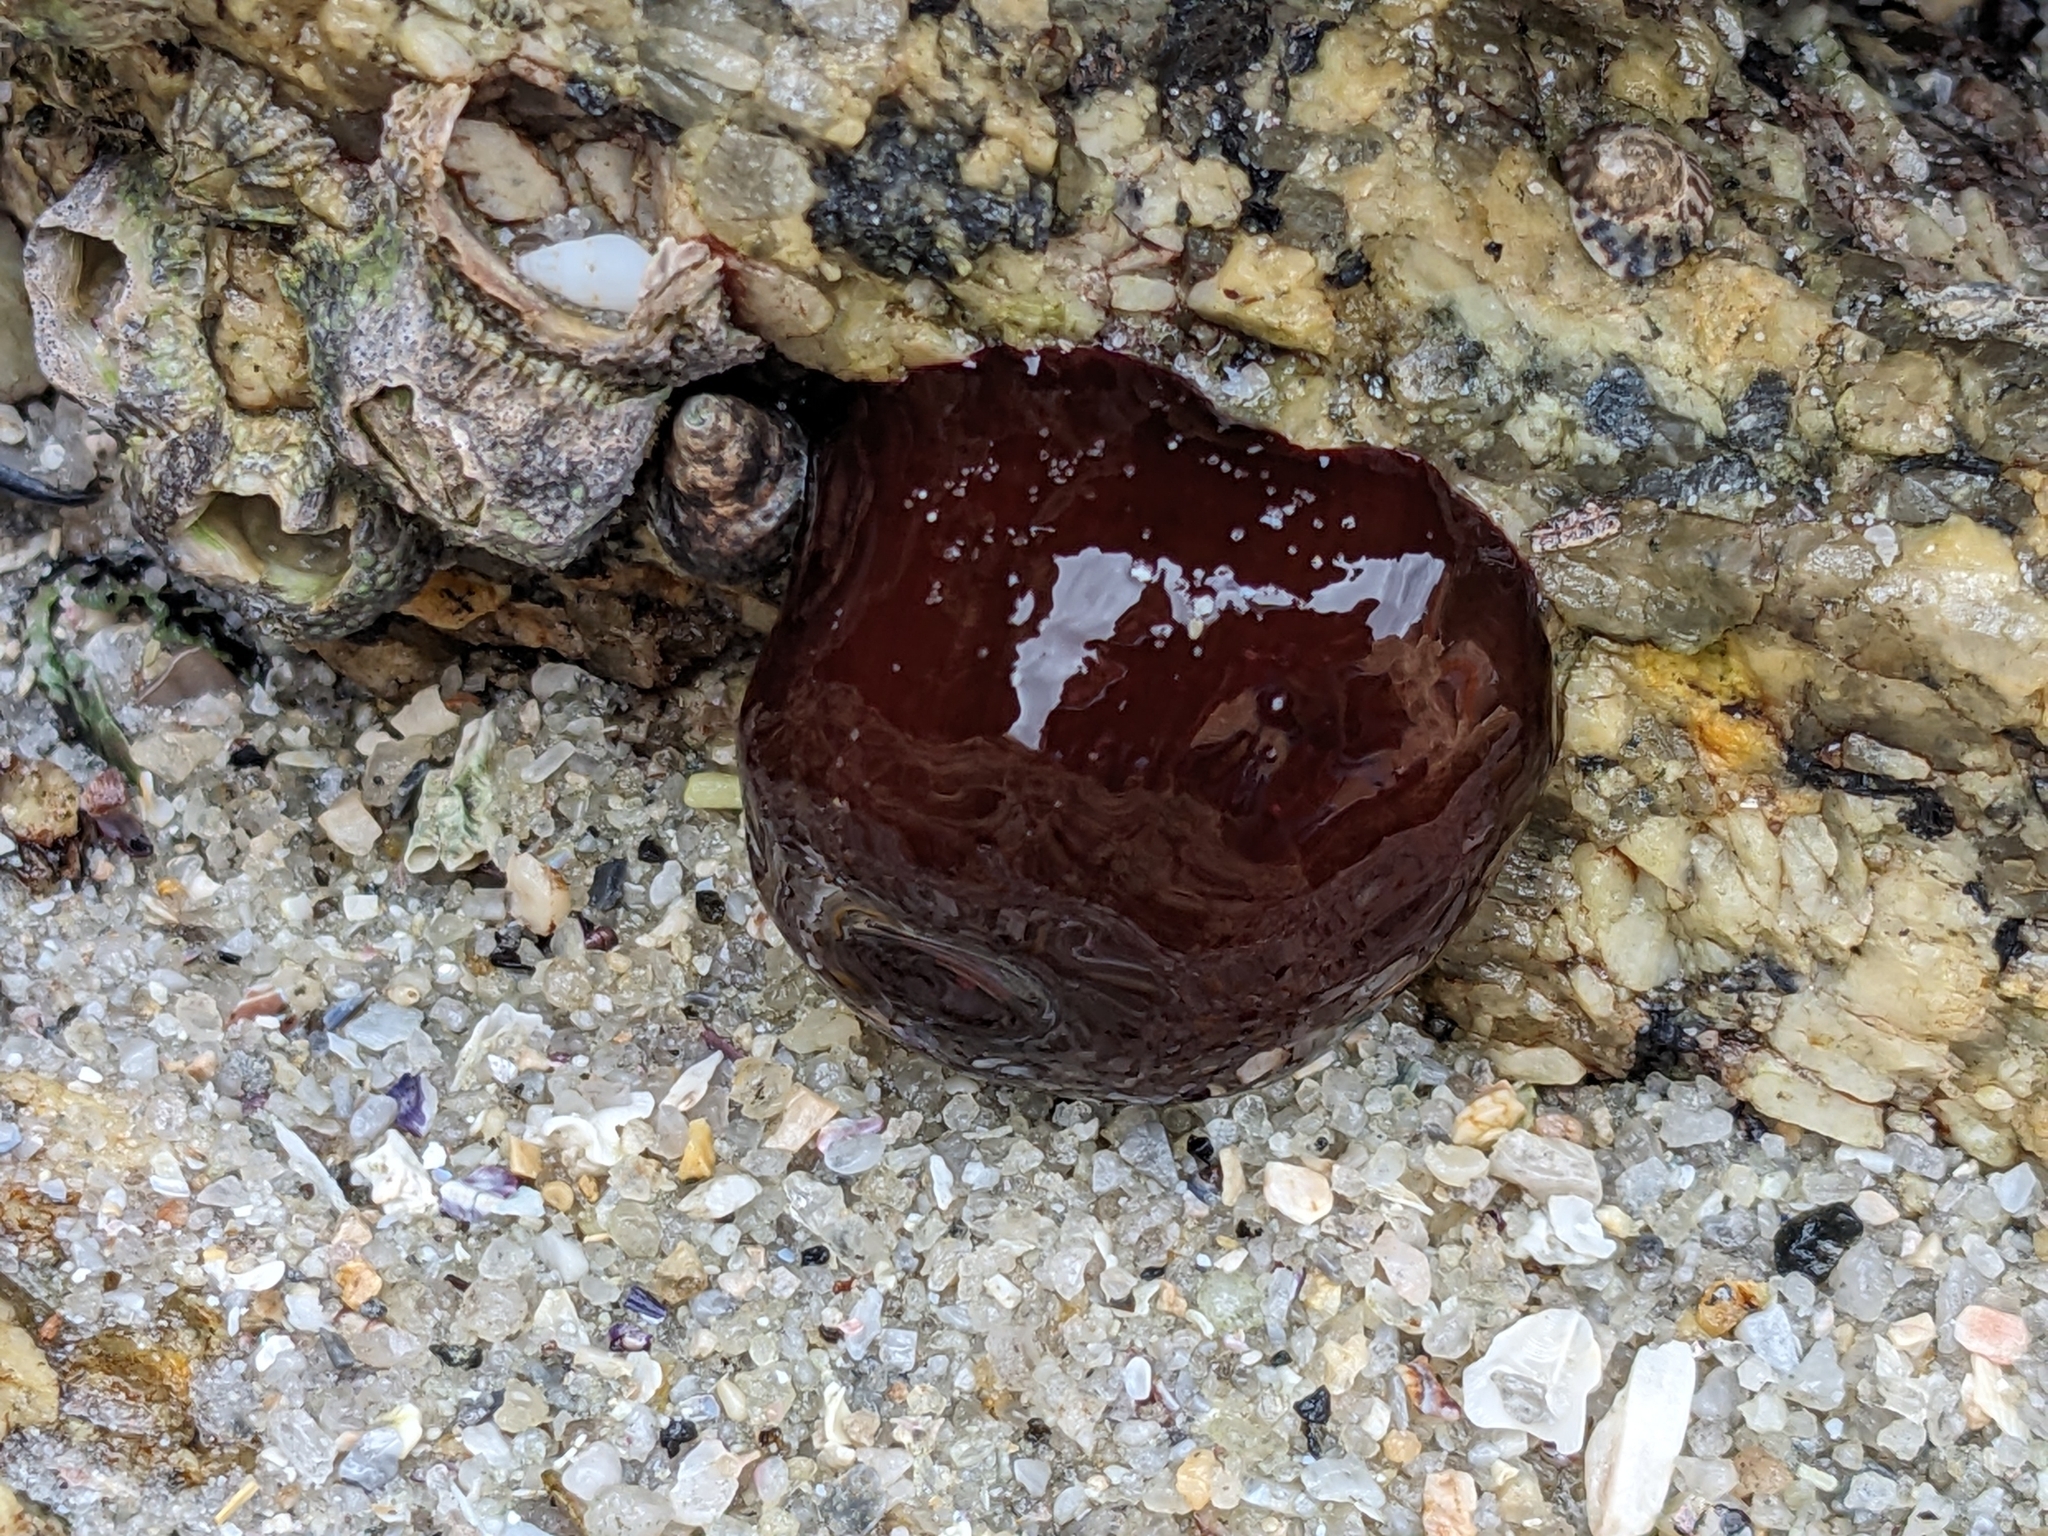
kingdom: Animalia
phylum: Cnidaria
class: Anthozoa
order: Actiniaria
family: Actiniidae
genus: Actinia
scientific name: Actinia tenebrosa
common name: Waratah anemone
